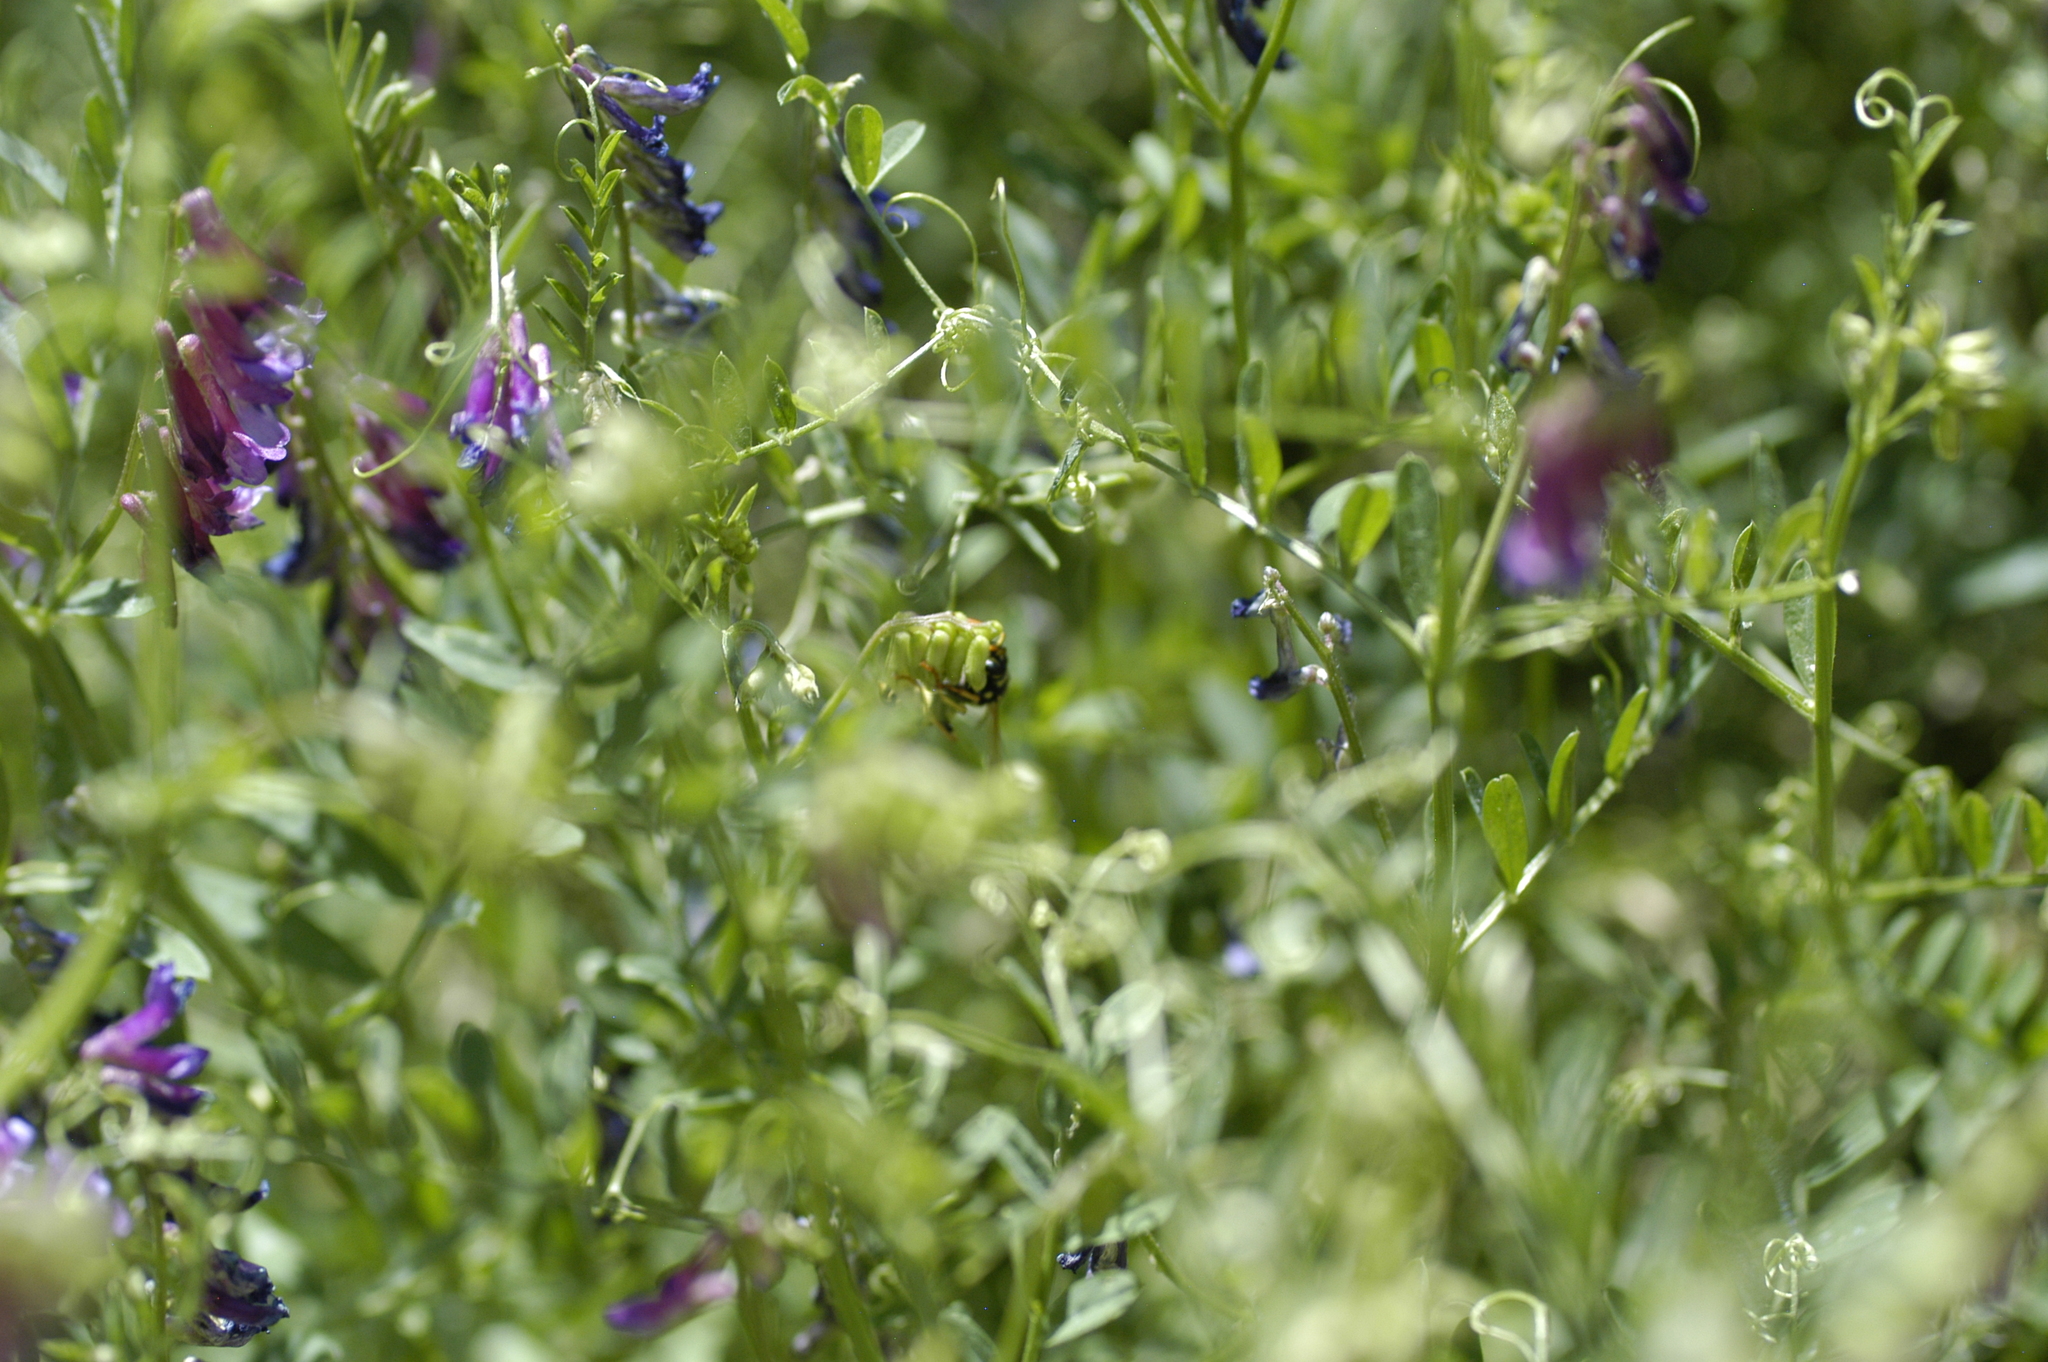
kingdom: Animalia
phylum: Arthropoda
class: Insecta
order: Hymenoptera
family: Eumenidae
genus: Polistes
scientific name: Polistes dominula
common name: Paper wasp
